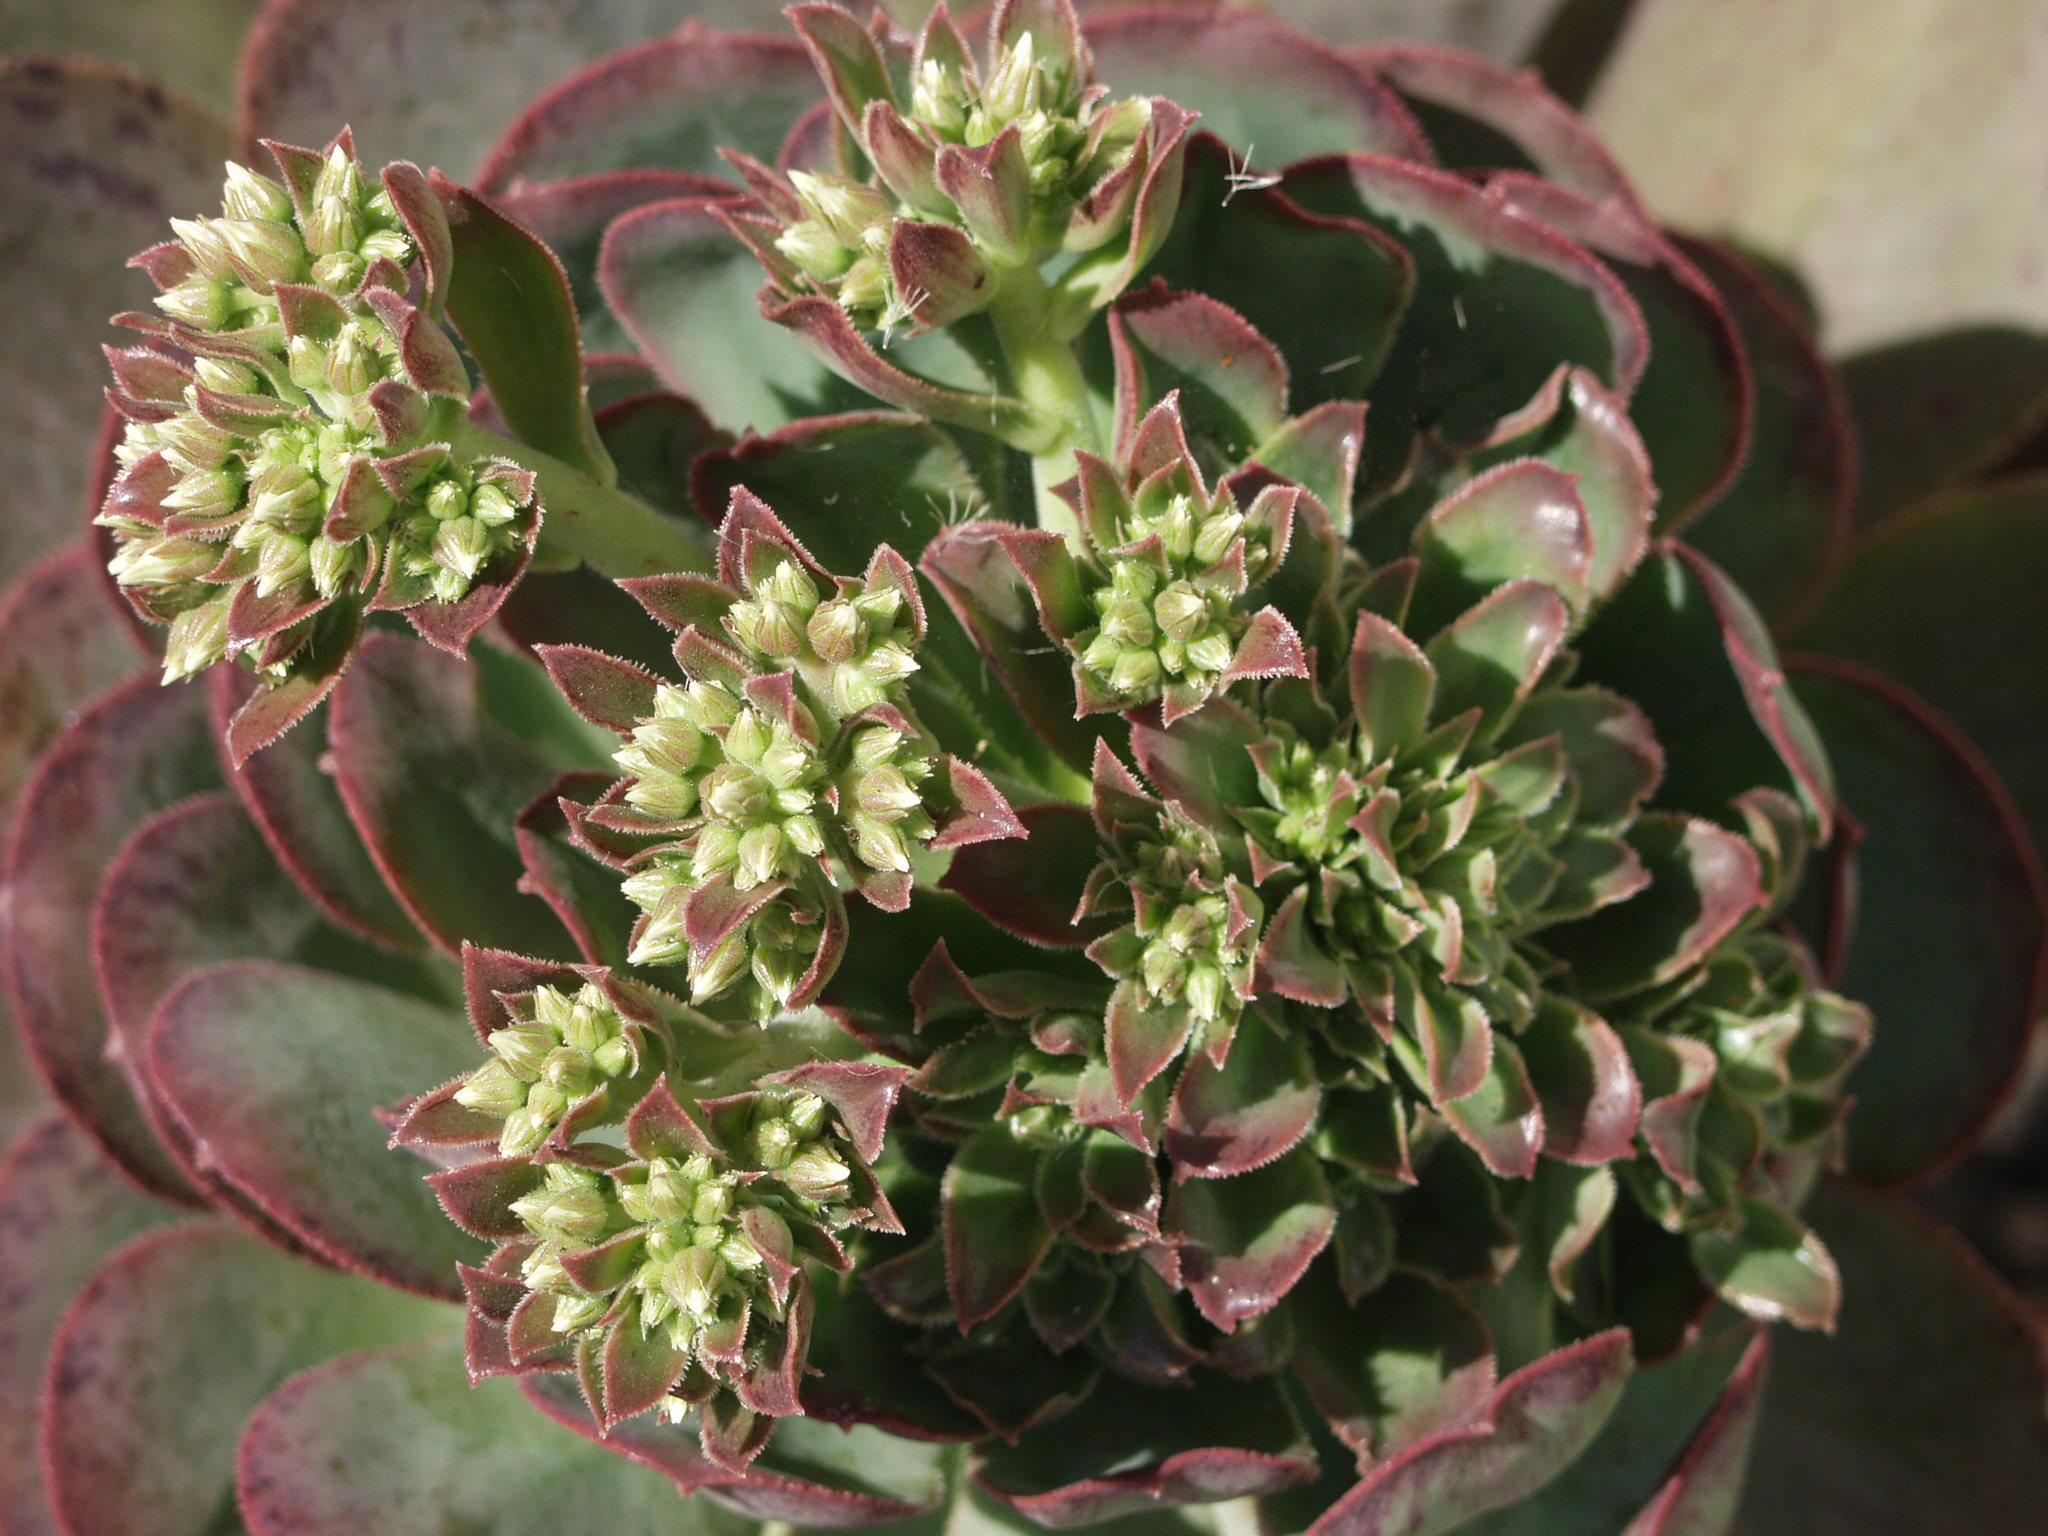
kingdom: Plantae
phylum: Tracheophyta
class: Magnoliopsida
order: Saxifragales
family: Crassulaceae
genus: Aeonium
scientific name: Aeonium davidbramwellii
